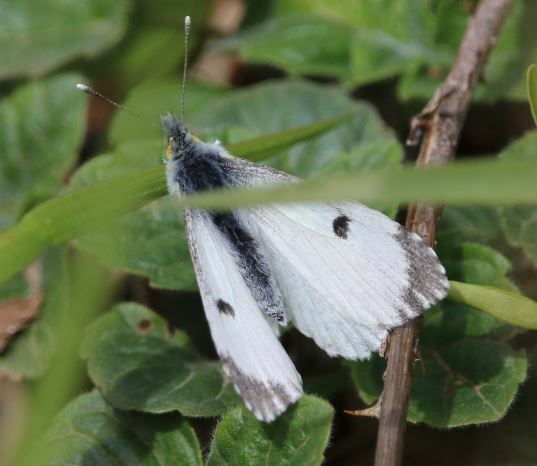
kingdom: Animalia
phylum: Arthropoda
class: Insecta
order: Lepidoptera
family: Pieridae
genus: Anthocharis
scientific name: Anthocharis cardamines
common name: Orange-tip
